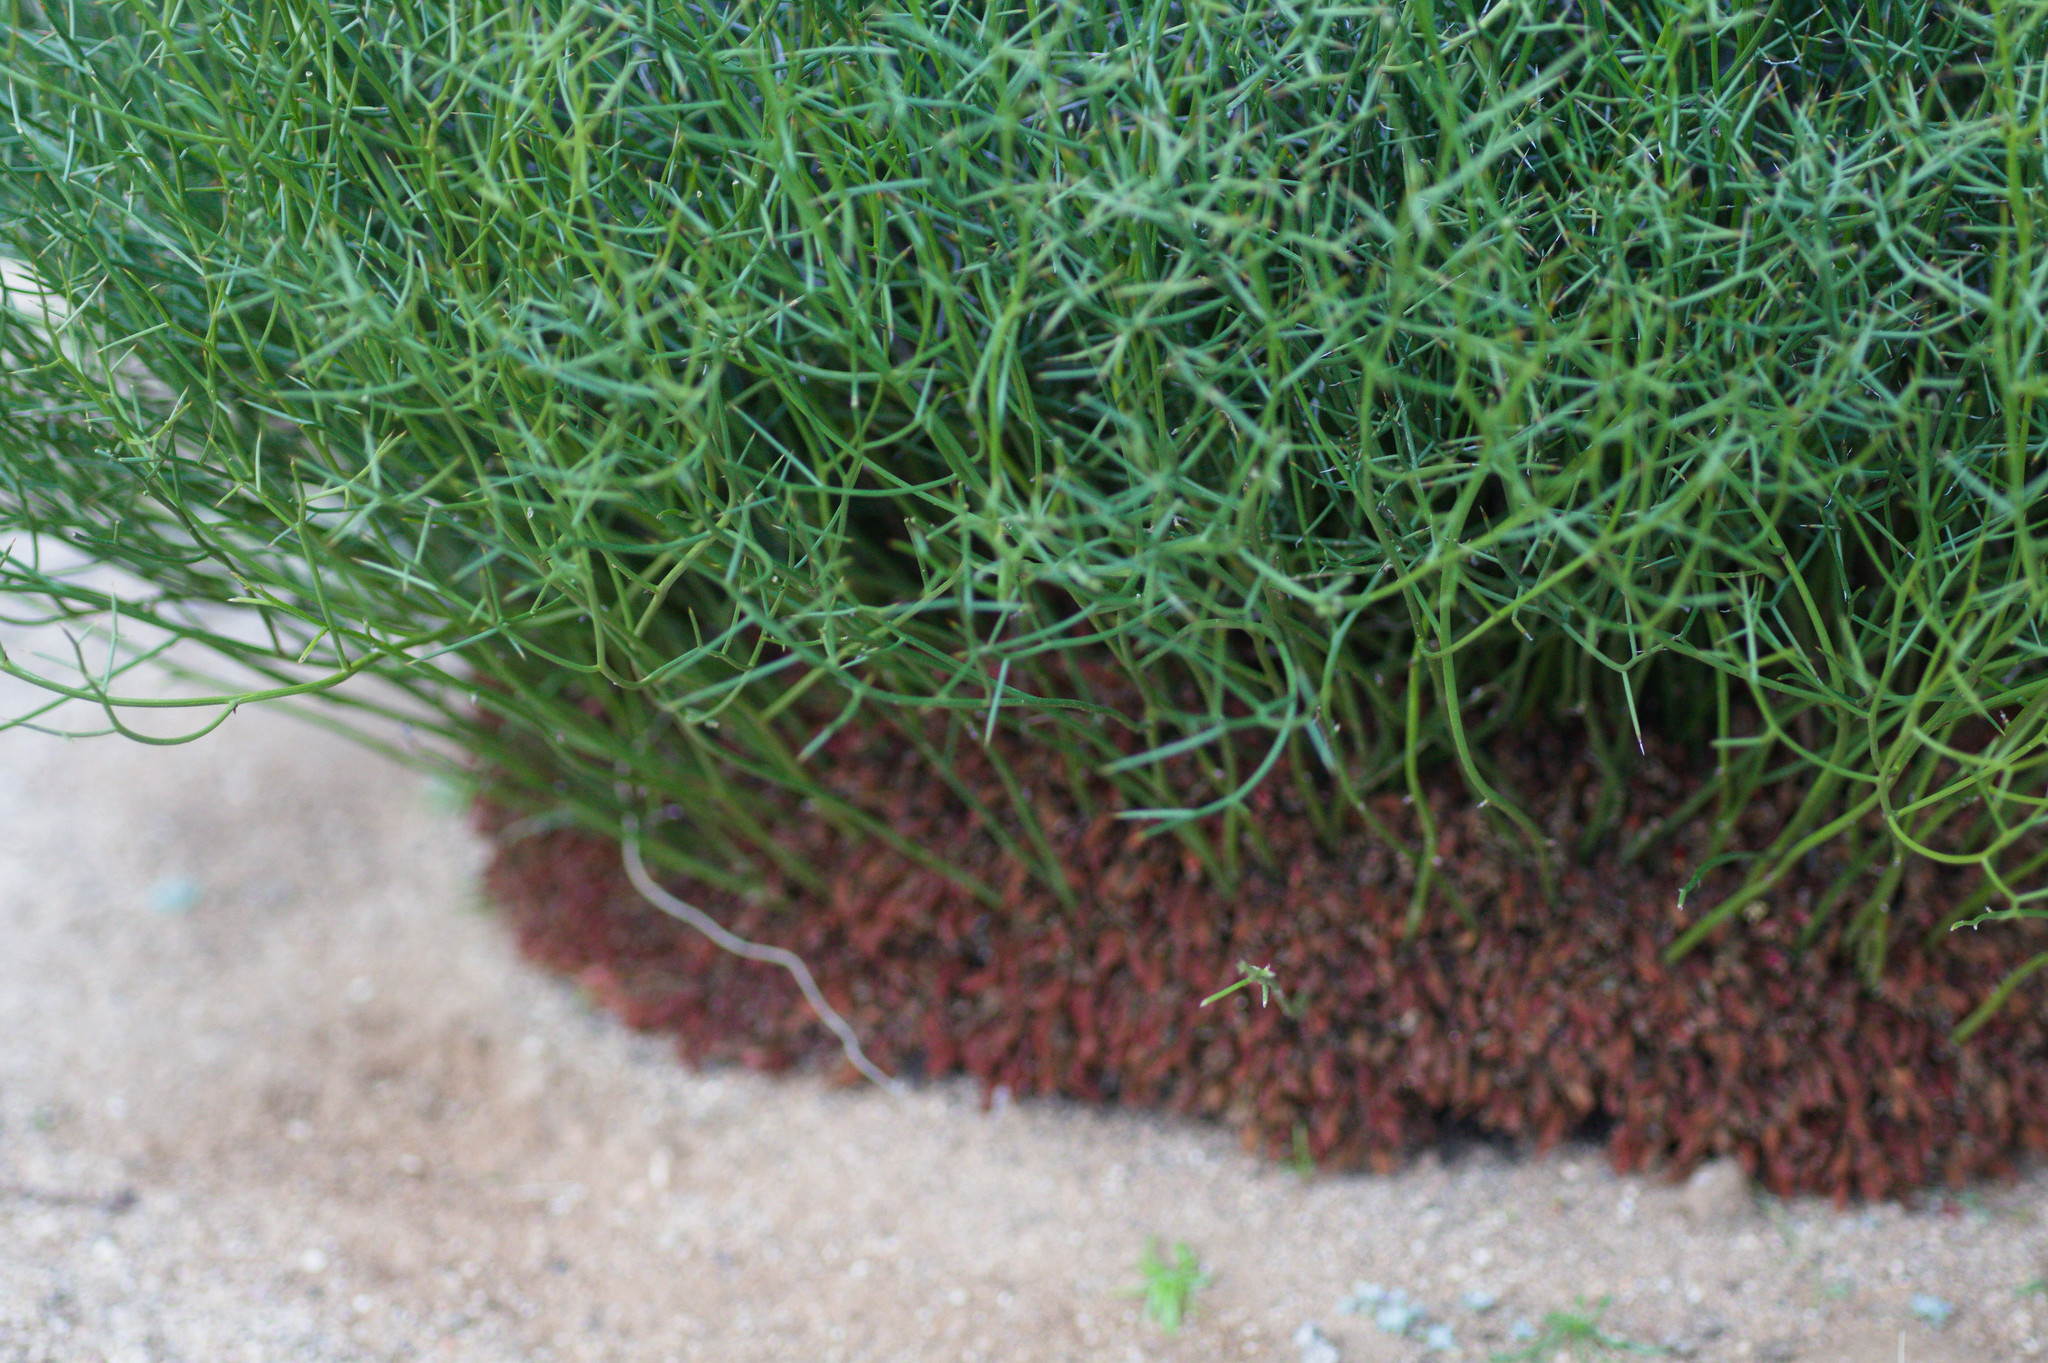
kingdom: Plantae
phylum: Tracheophyta
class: Magnoliopsida
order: Fabales
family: Fabaceae
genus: Leptosema
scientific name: Leptosema daviesioides
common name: Upside-down pea-bush
